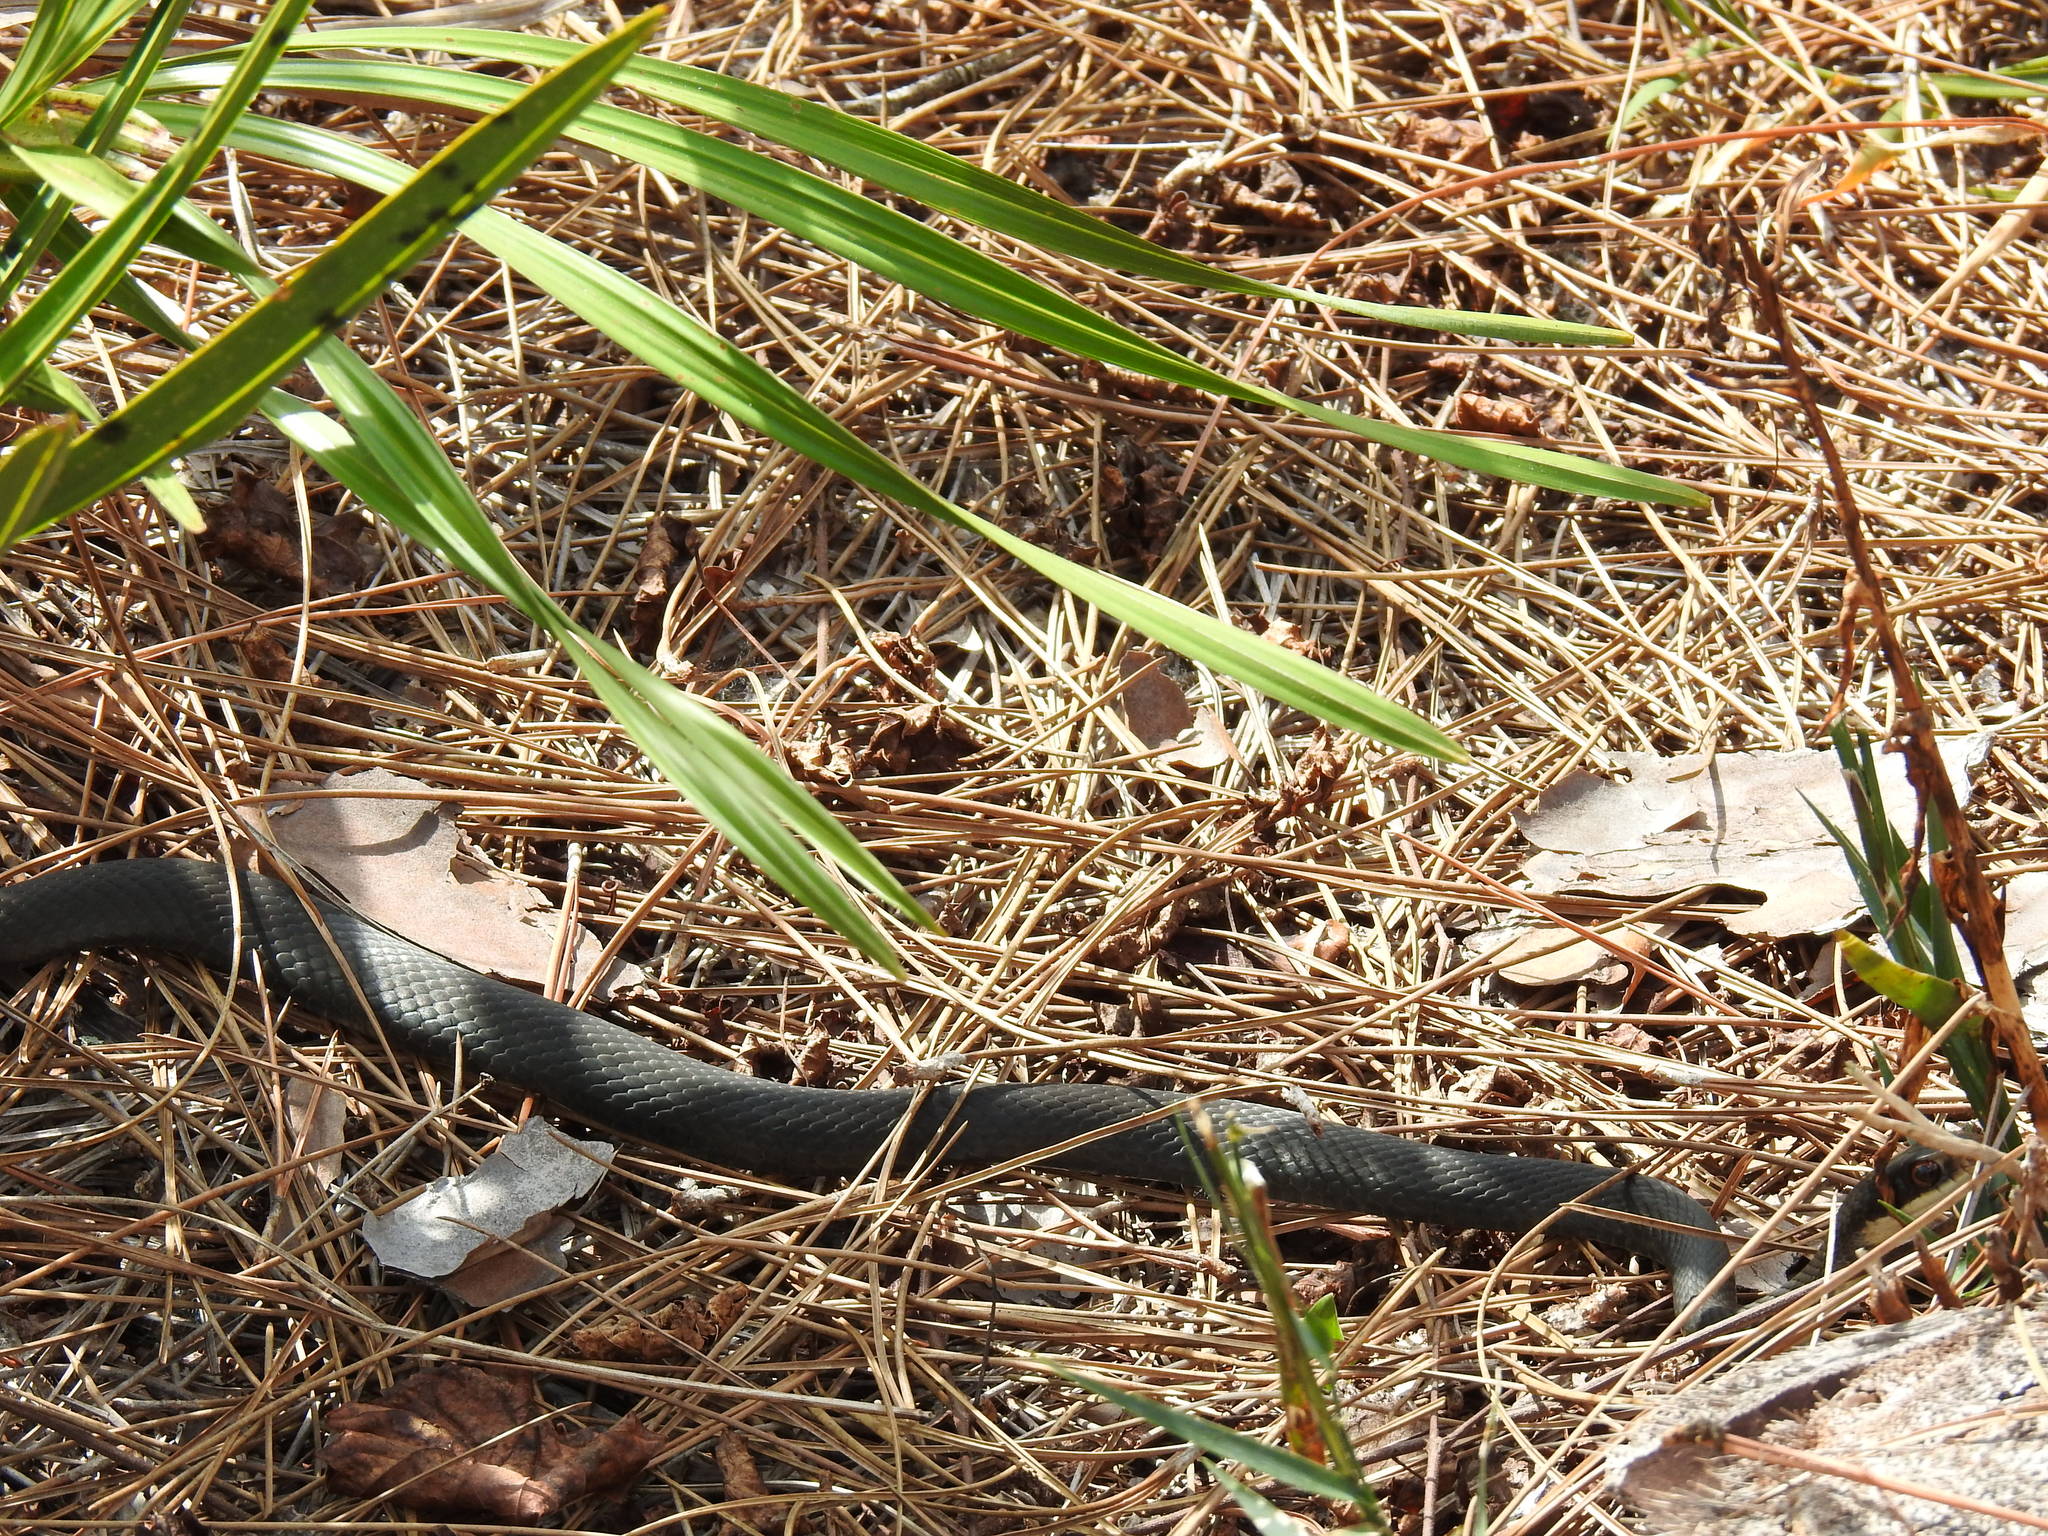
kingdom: Animalia
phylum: Chordata
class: Squamata
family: Colubridae
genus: Coluber
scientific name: Coluber constrictor
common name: Eastern racer
